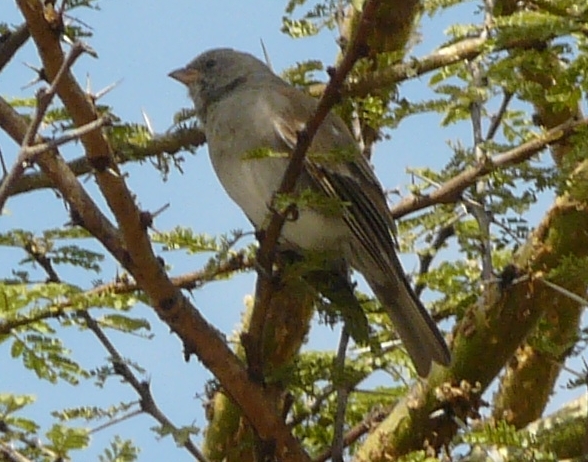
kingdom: Animalia
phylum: Chordata
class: Aves
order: Passeriformes
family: Passeridae
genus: Passer
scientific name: Passer griseus
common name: Northern grey-headed sparrow
